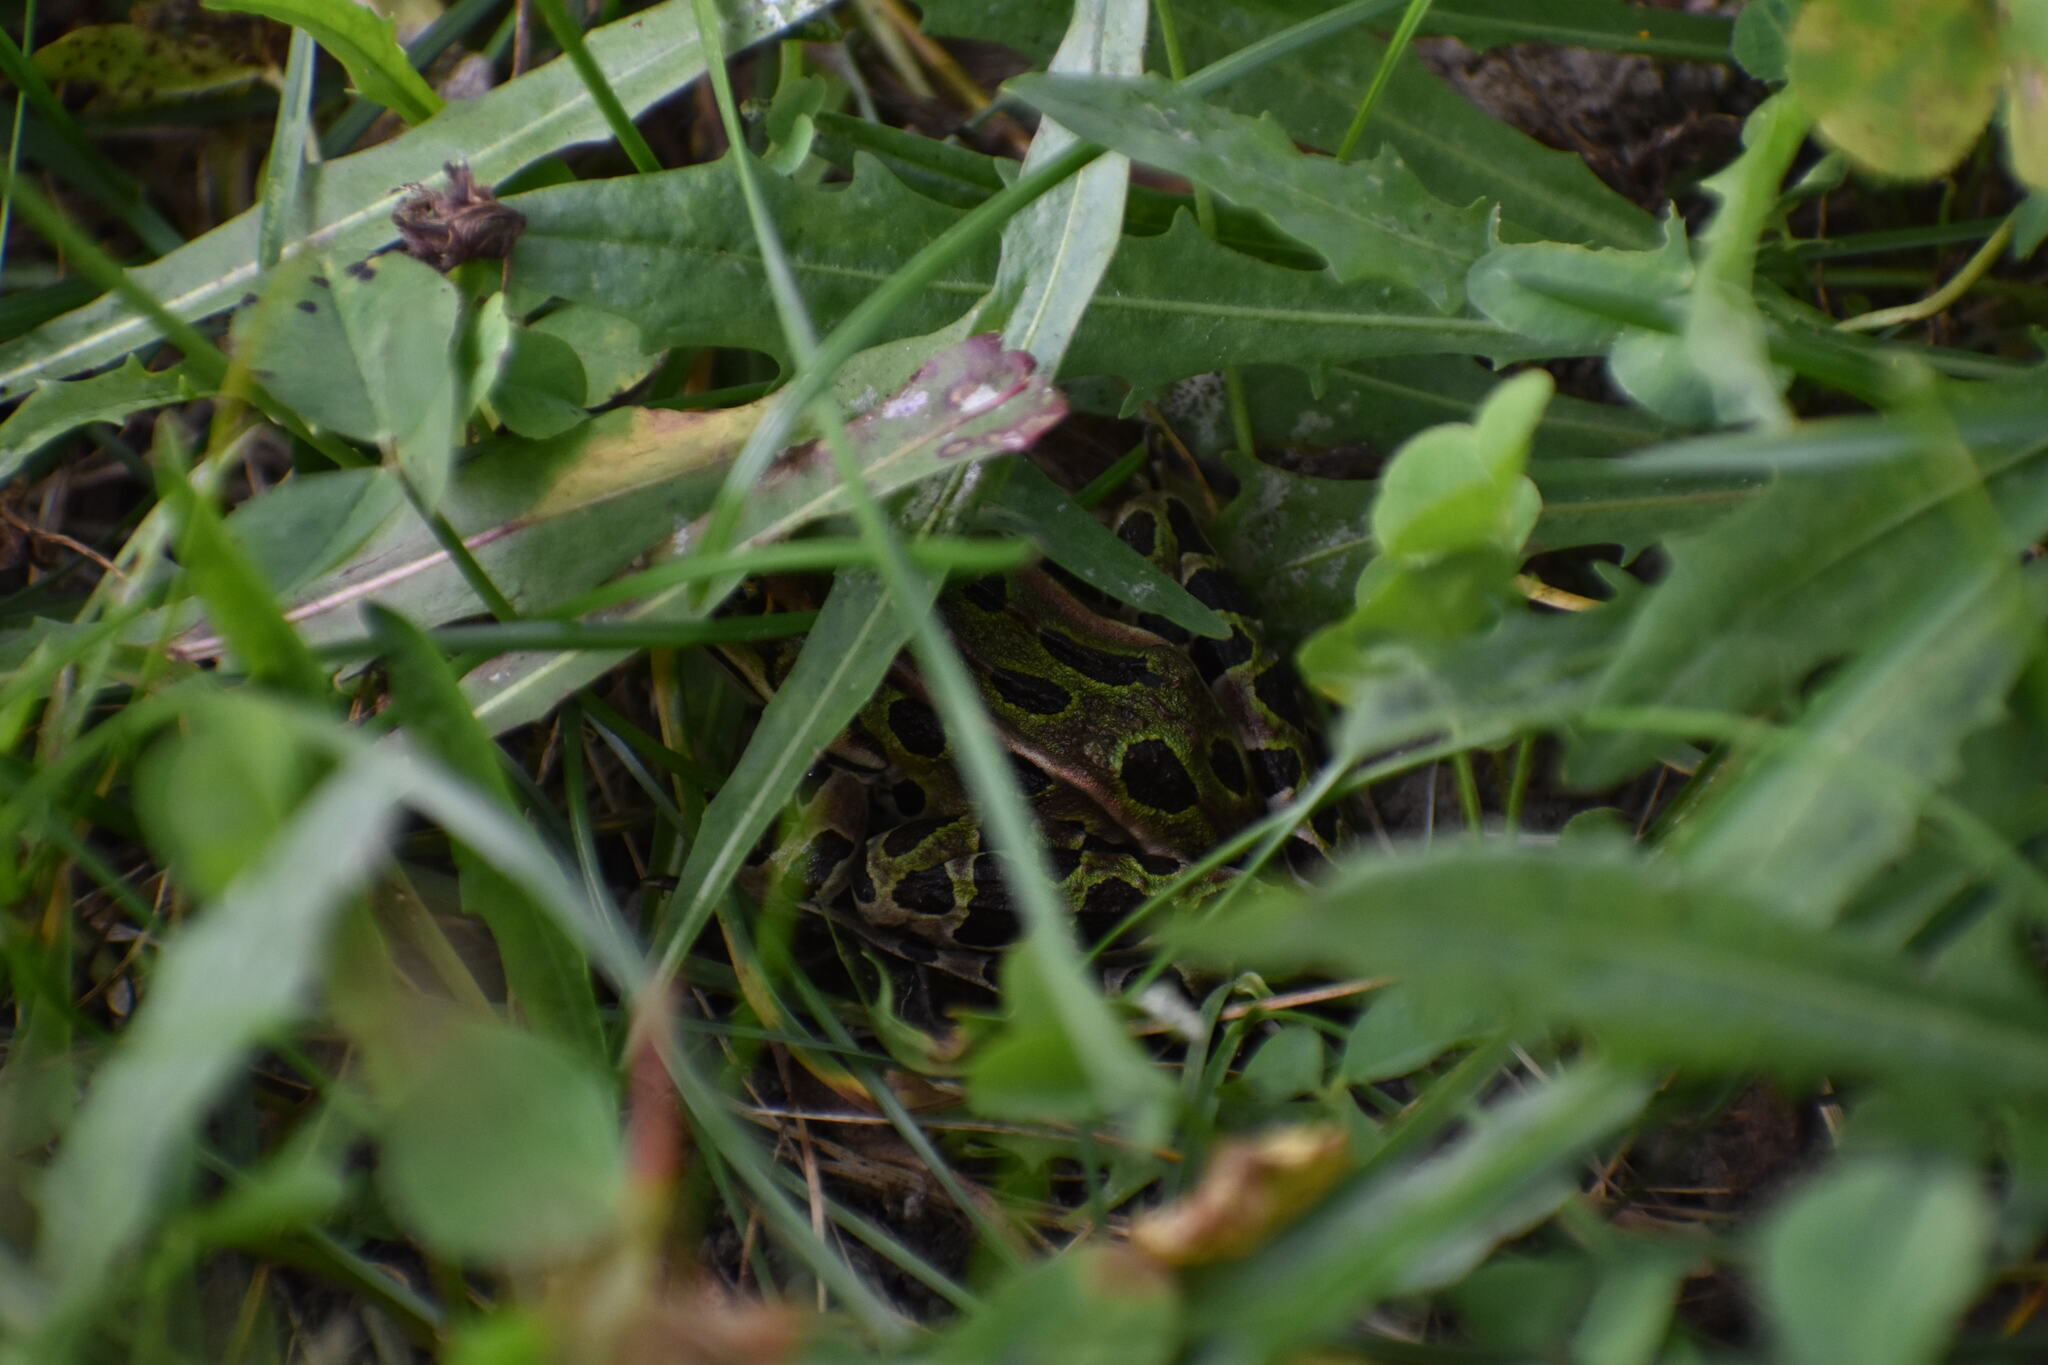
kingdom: Animalia
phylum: Chordata
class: Amphibia
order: Anura
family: Ranidae
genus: Lithobates
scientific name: Lithobates pipiens
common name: Northern leopard frog
